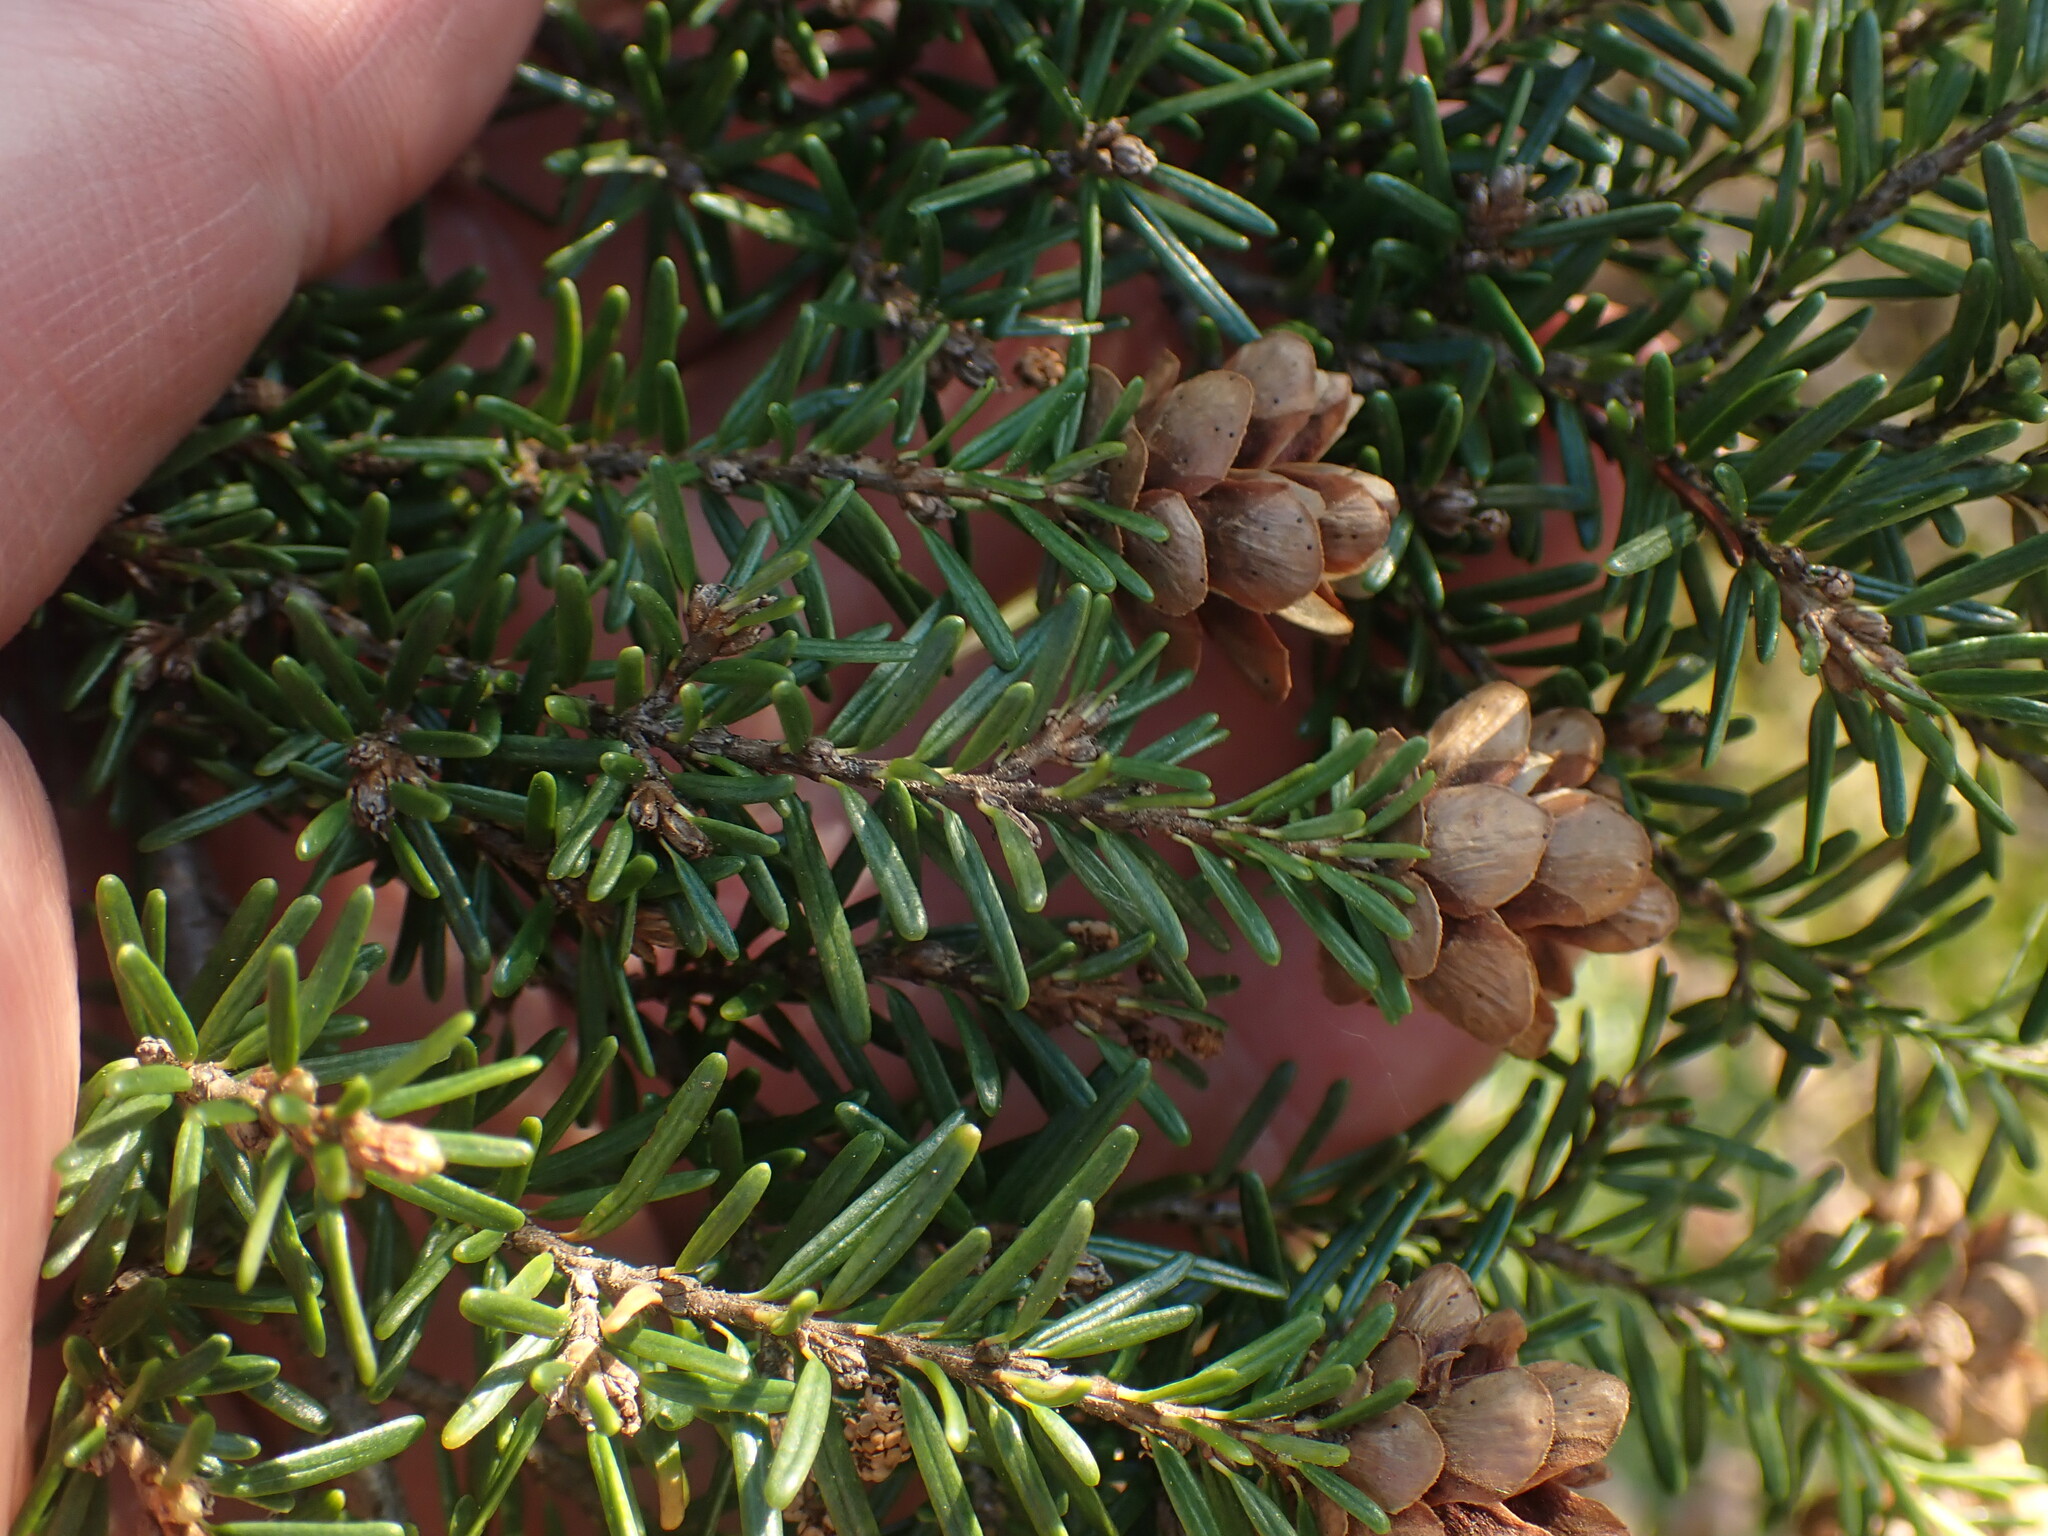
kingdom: Plantae
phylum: Tracheophyta
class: Pinopsida
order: Pinales
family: Pinaceae
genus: Tsuga
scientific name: Tsuga heterophylla
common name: Western hemlock
